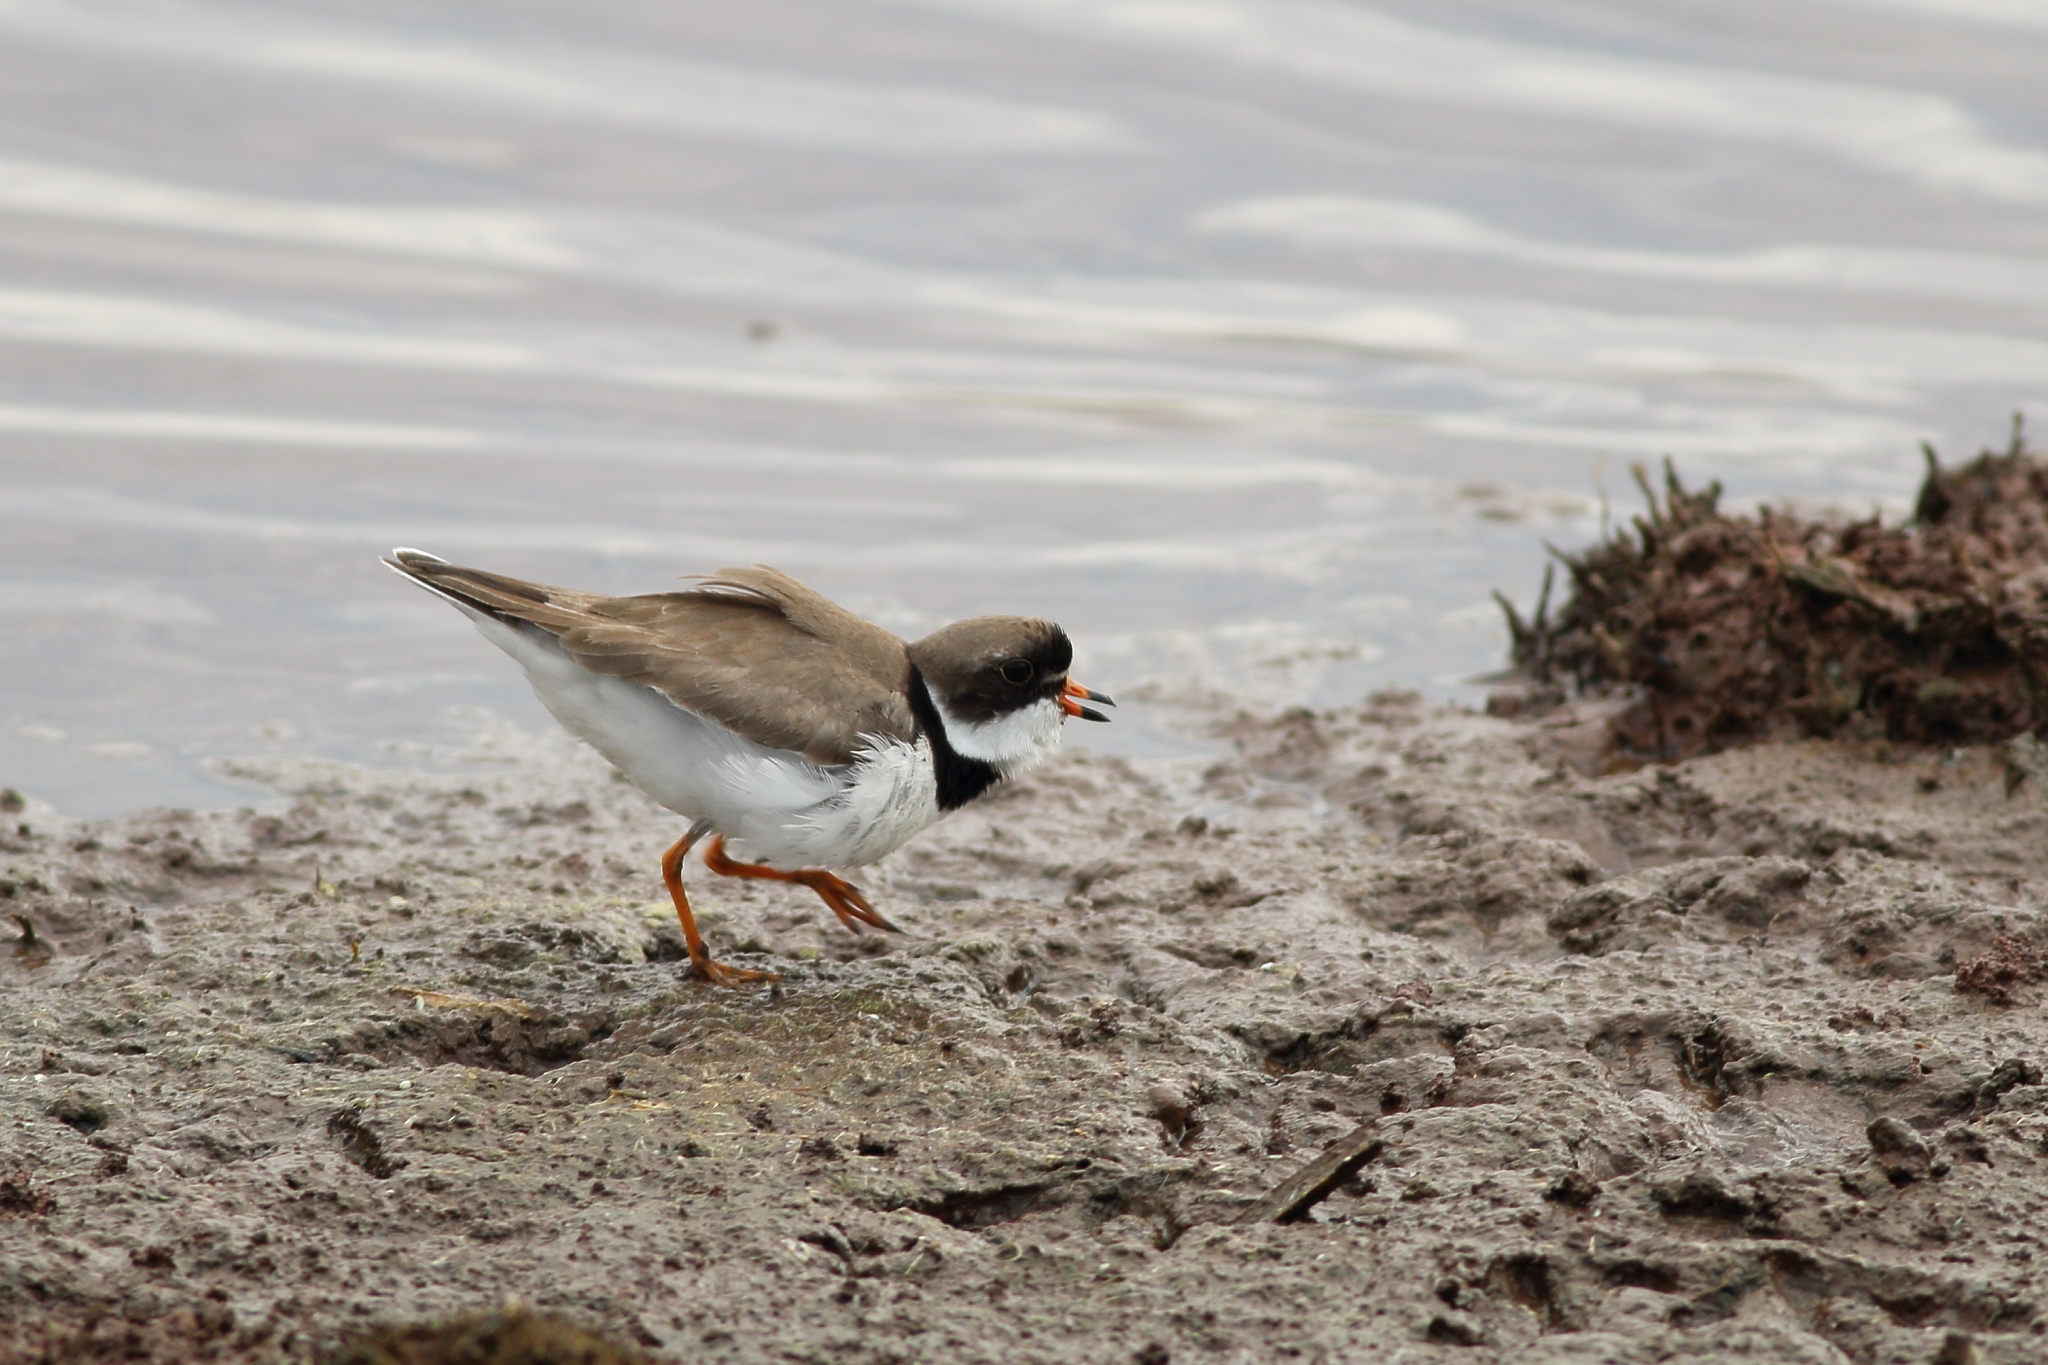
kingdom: Animalia
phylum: Chordata
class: Aves
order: Charadriiformes
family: Charadriidae
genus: Charadrius
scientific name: Charadrius semipalmatus
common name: Semipalmated plover
